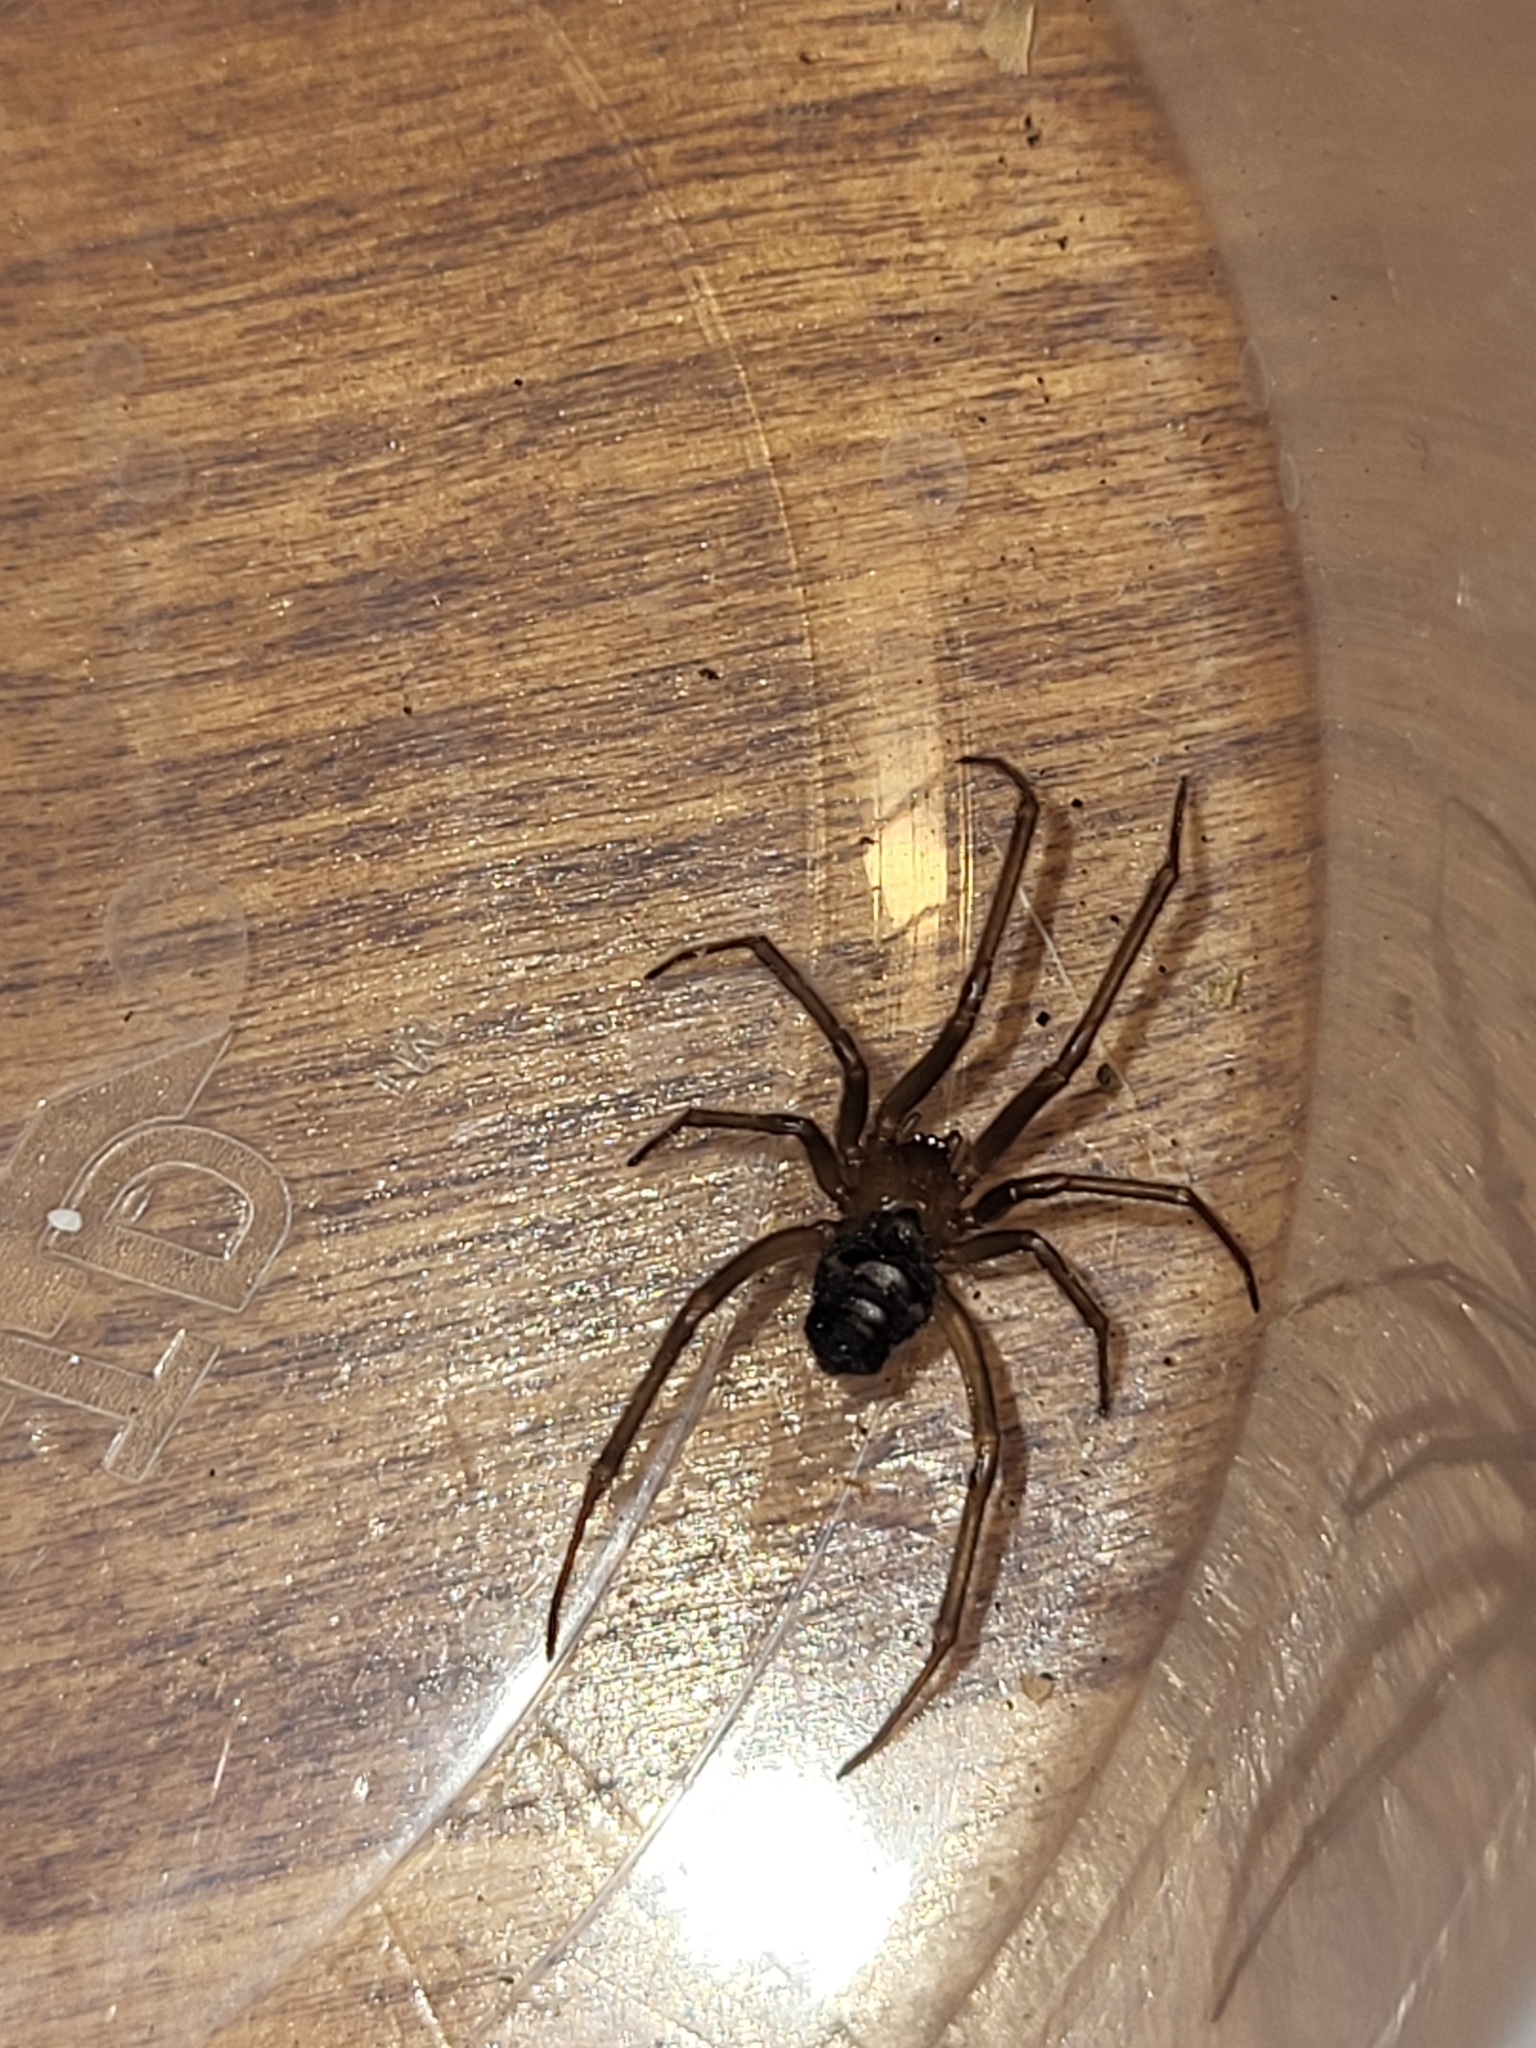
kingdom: Animalia
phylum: Arthropoda
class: Arachnida
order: Araneae
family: Theridiidae
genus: Steatoda
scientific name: Steatoda grossa
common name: False black widow
